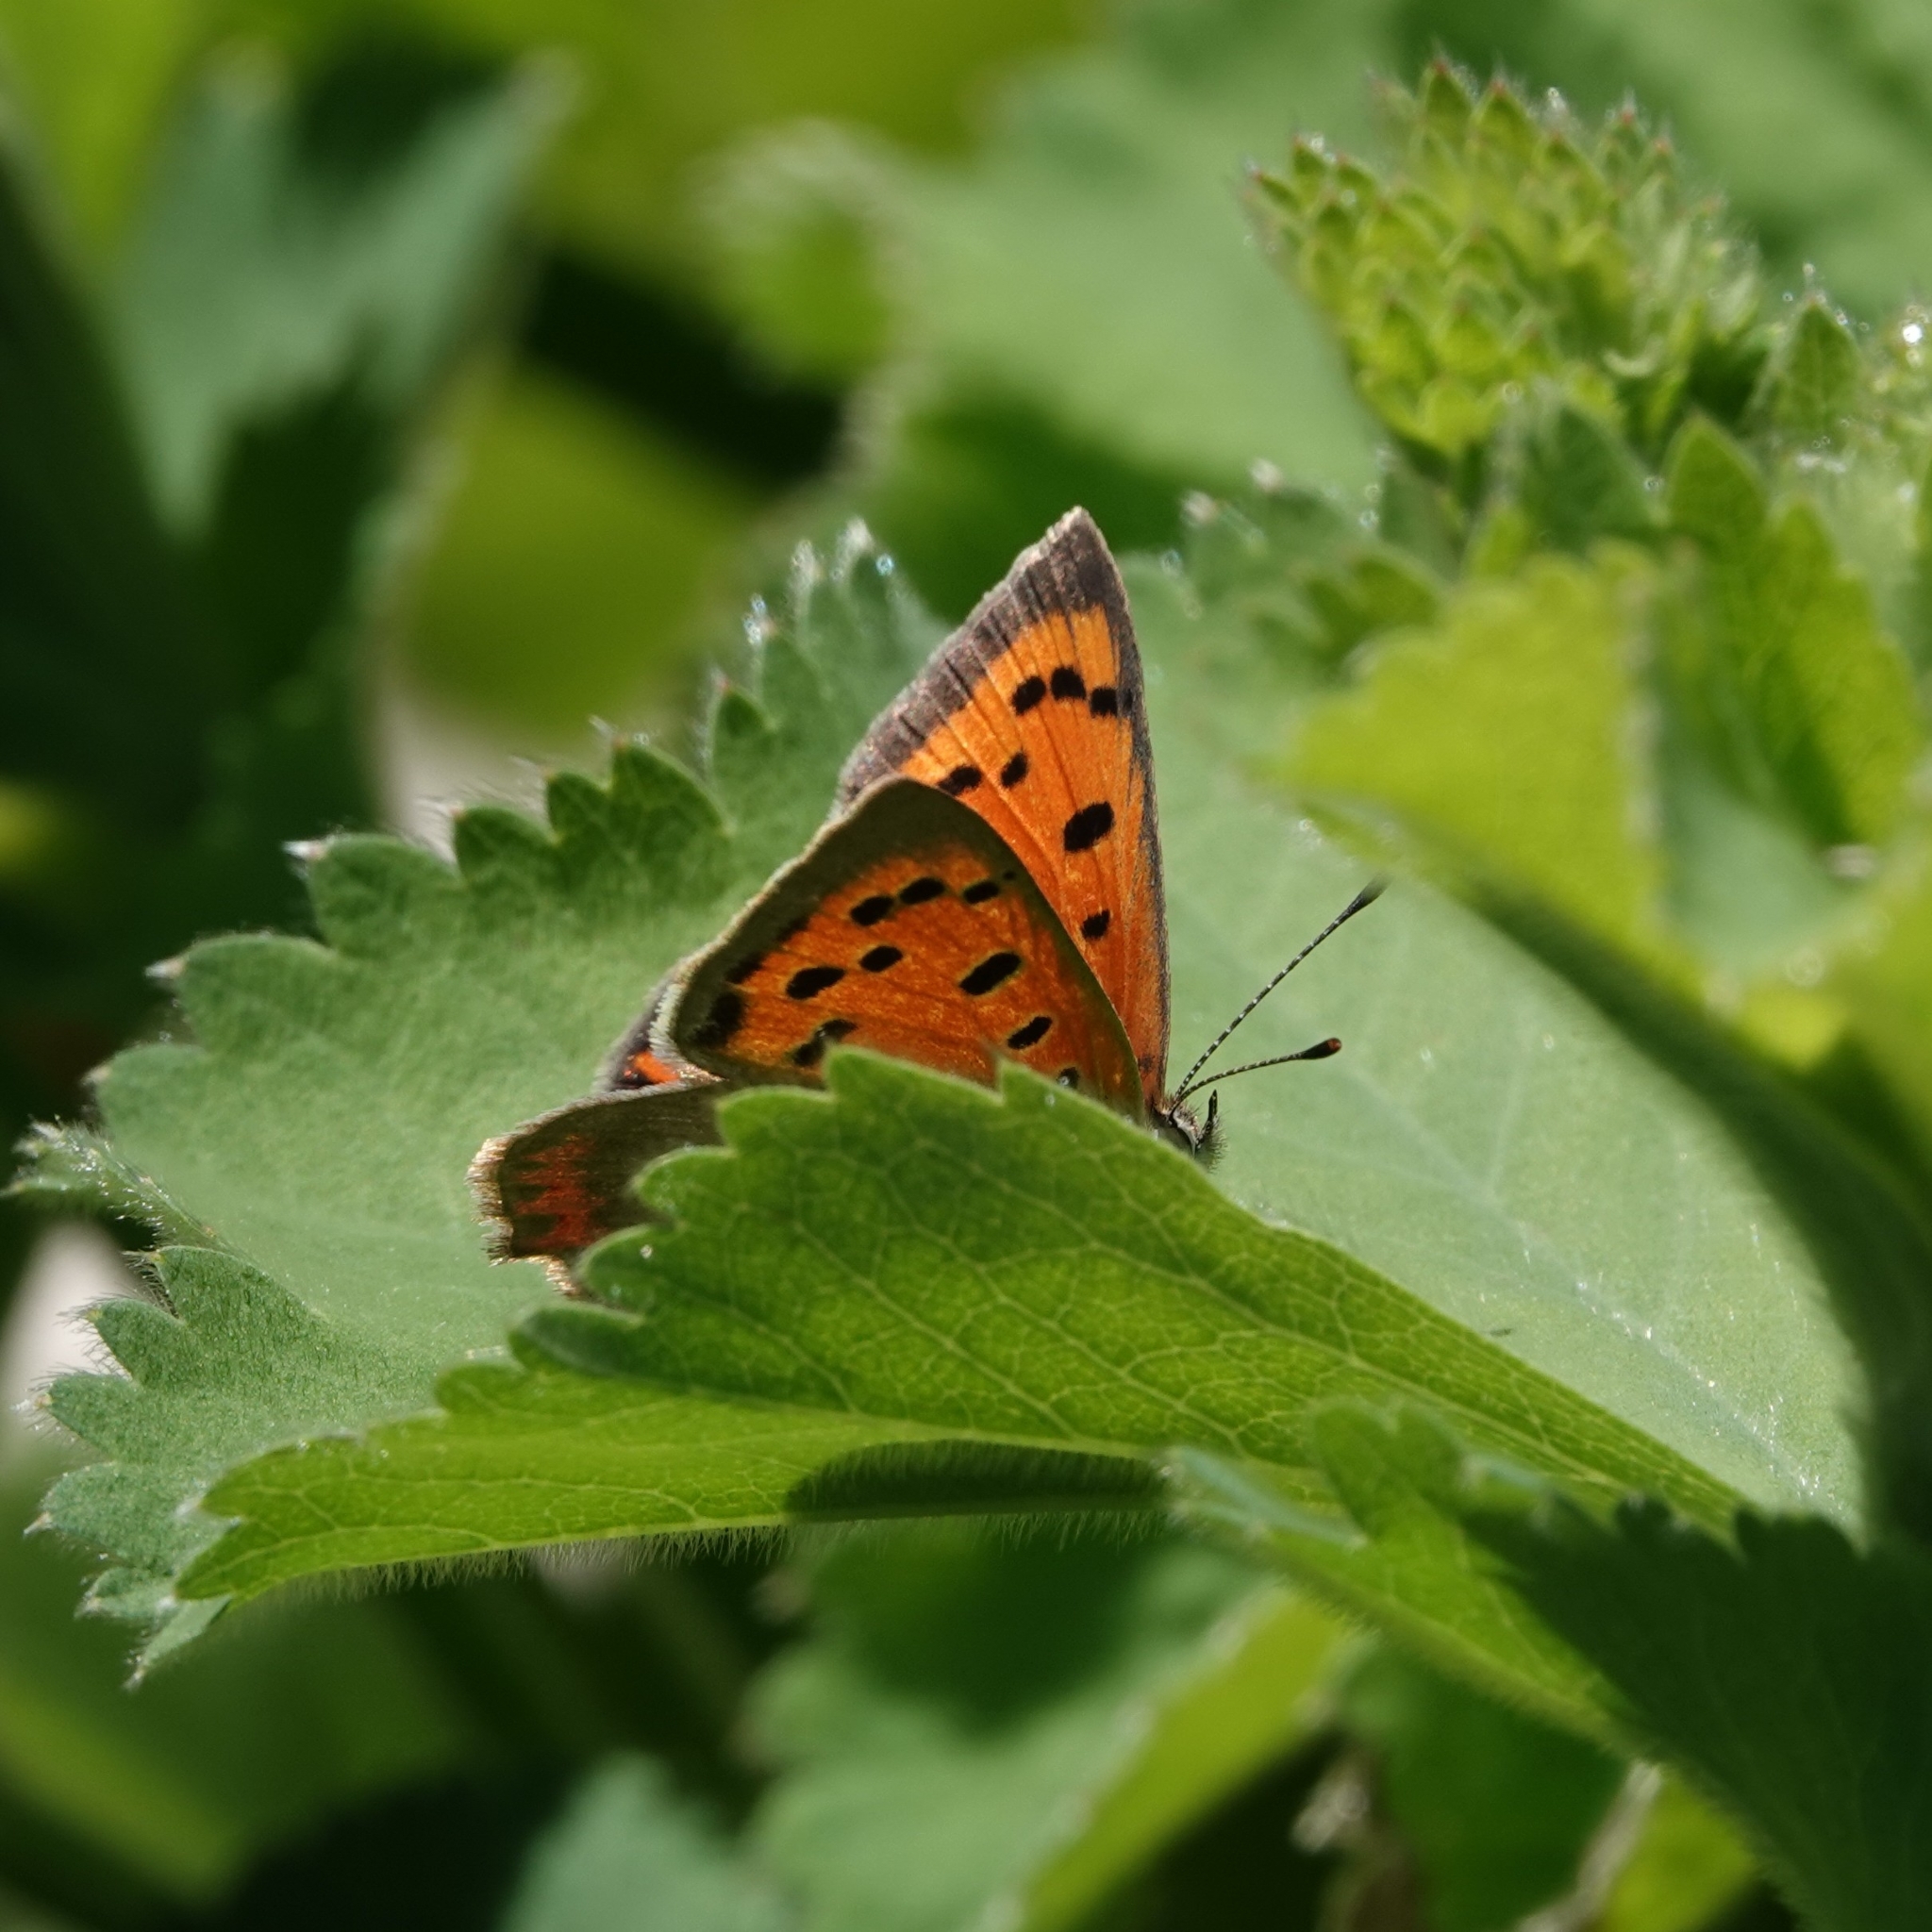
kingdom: Animalia
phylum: Arthropoda
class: Insecta
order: Lepidoptera
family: Lycaenidae
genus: Lycaena
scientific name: Lycaena phlaeas
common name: Small copper
